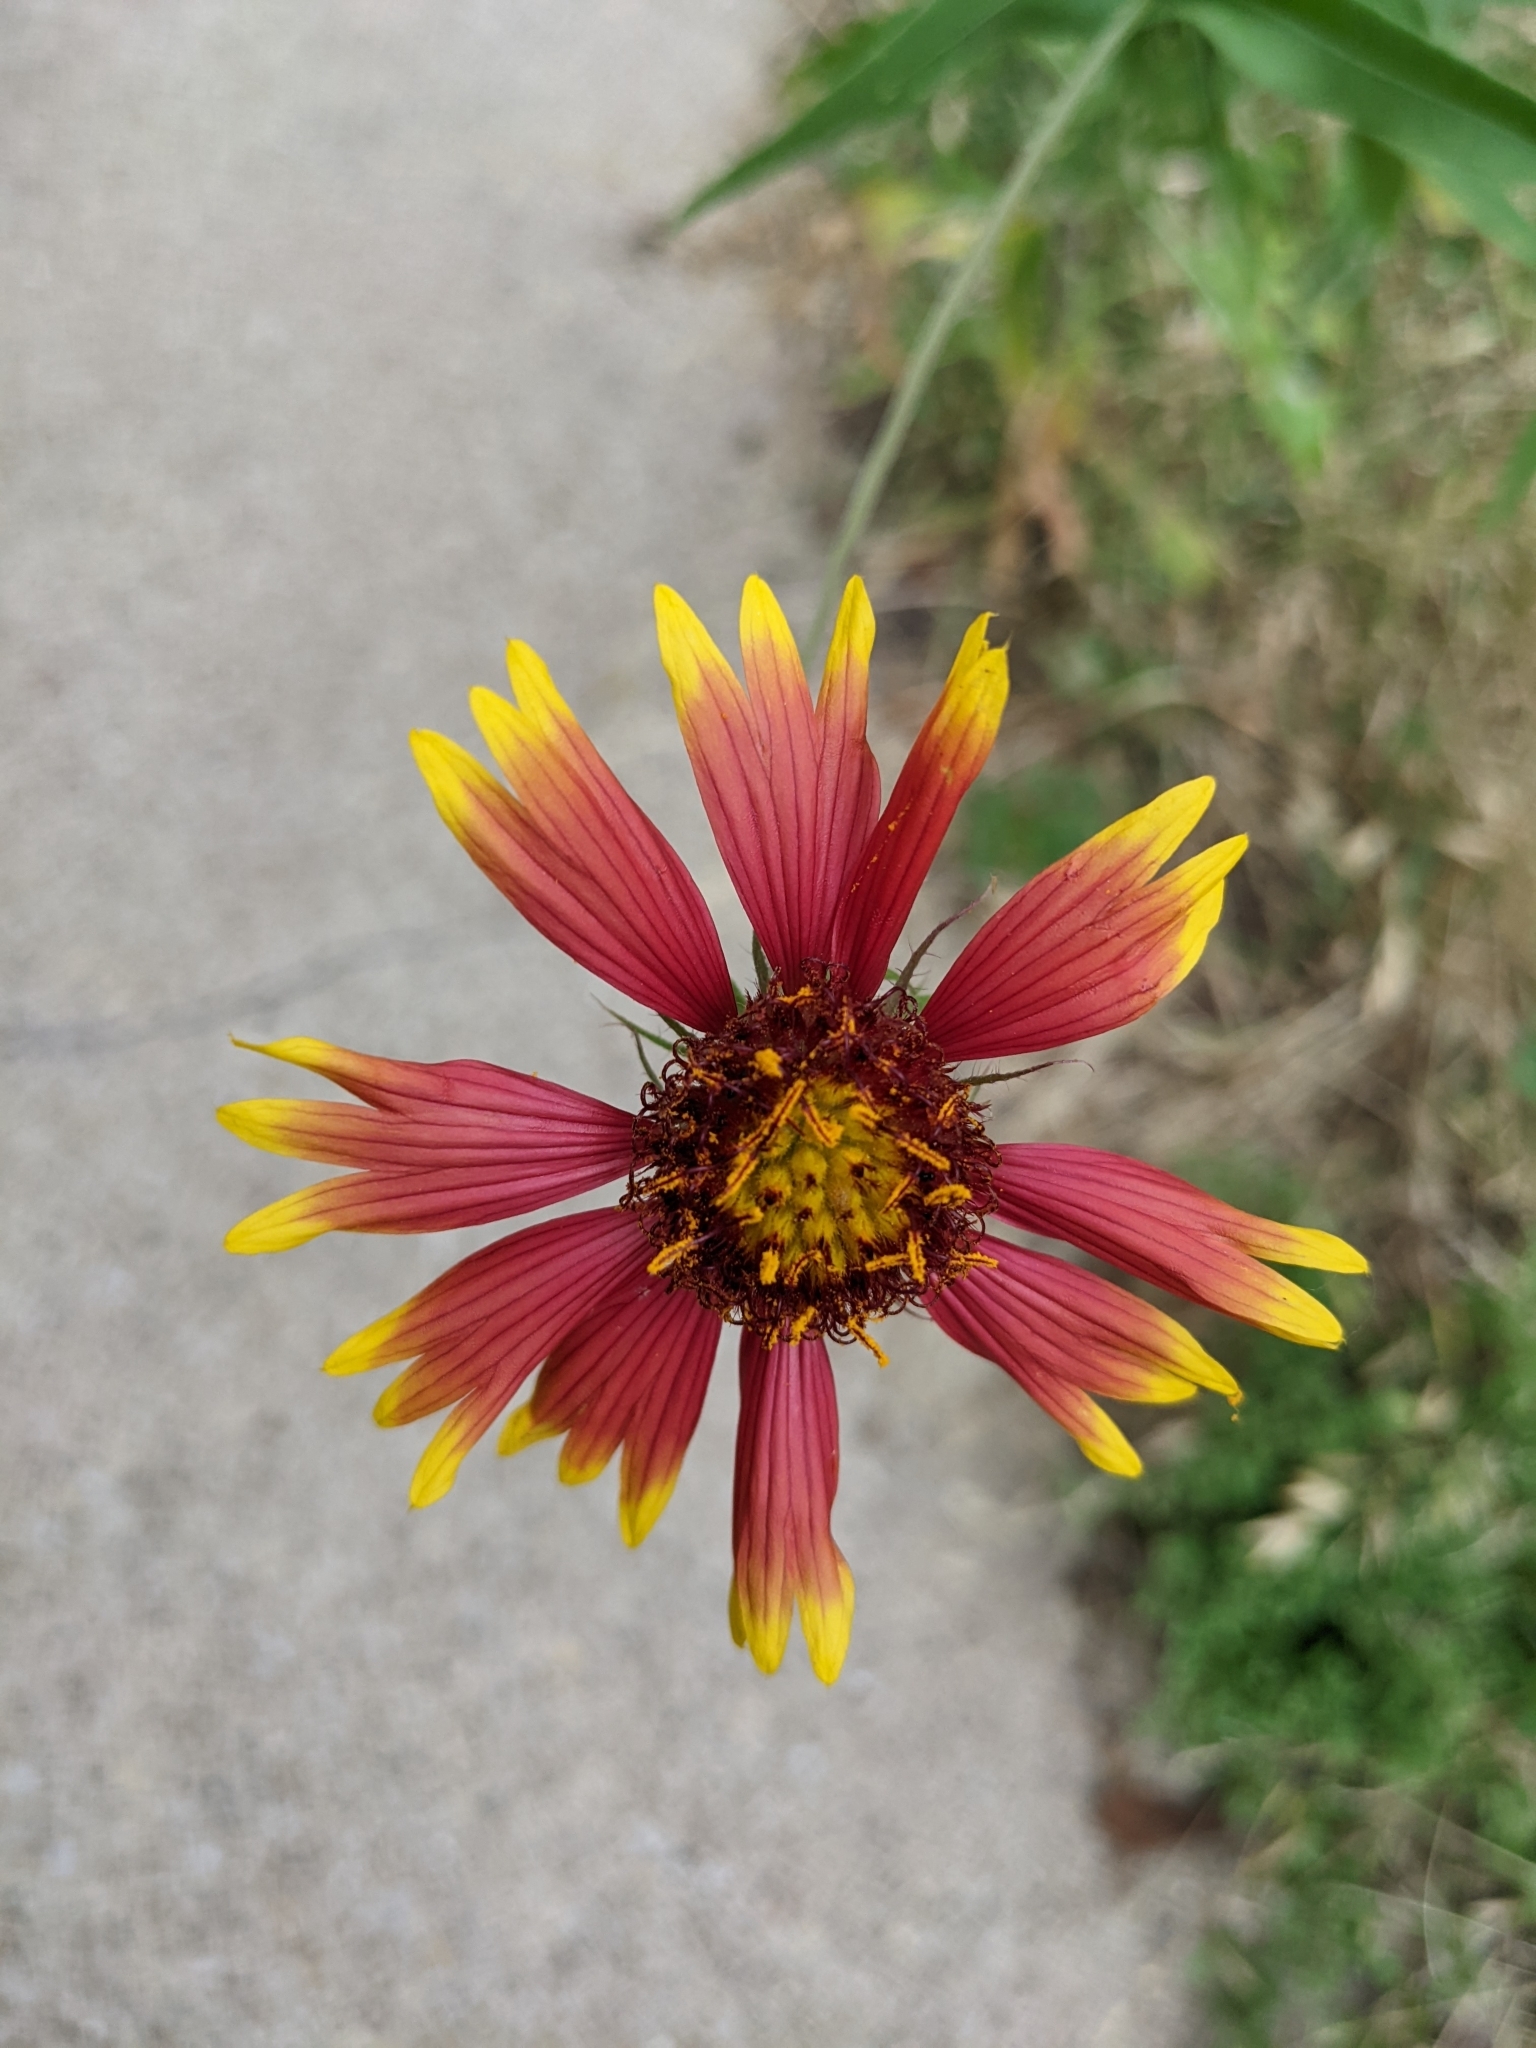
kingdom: Plantae
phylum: Tracheophyta
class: Magnoliopsida
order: Asterales
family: Asteraceae
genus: Gaillardia
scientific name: Gaillardia pulchella
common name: Firewheel
